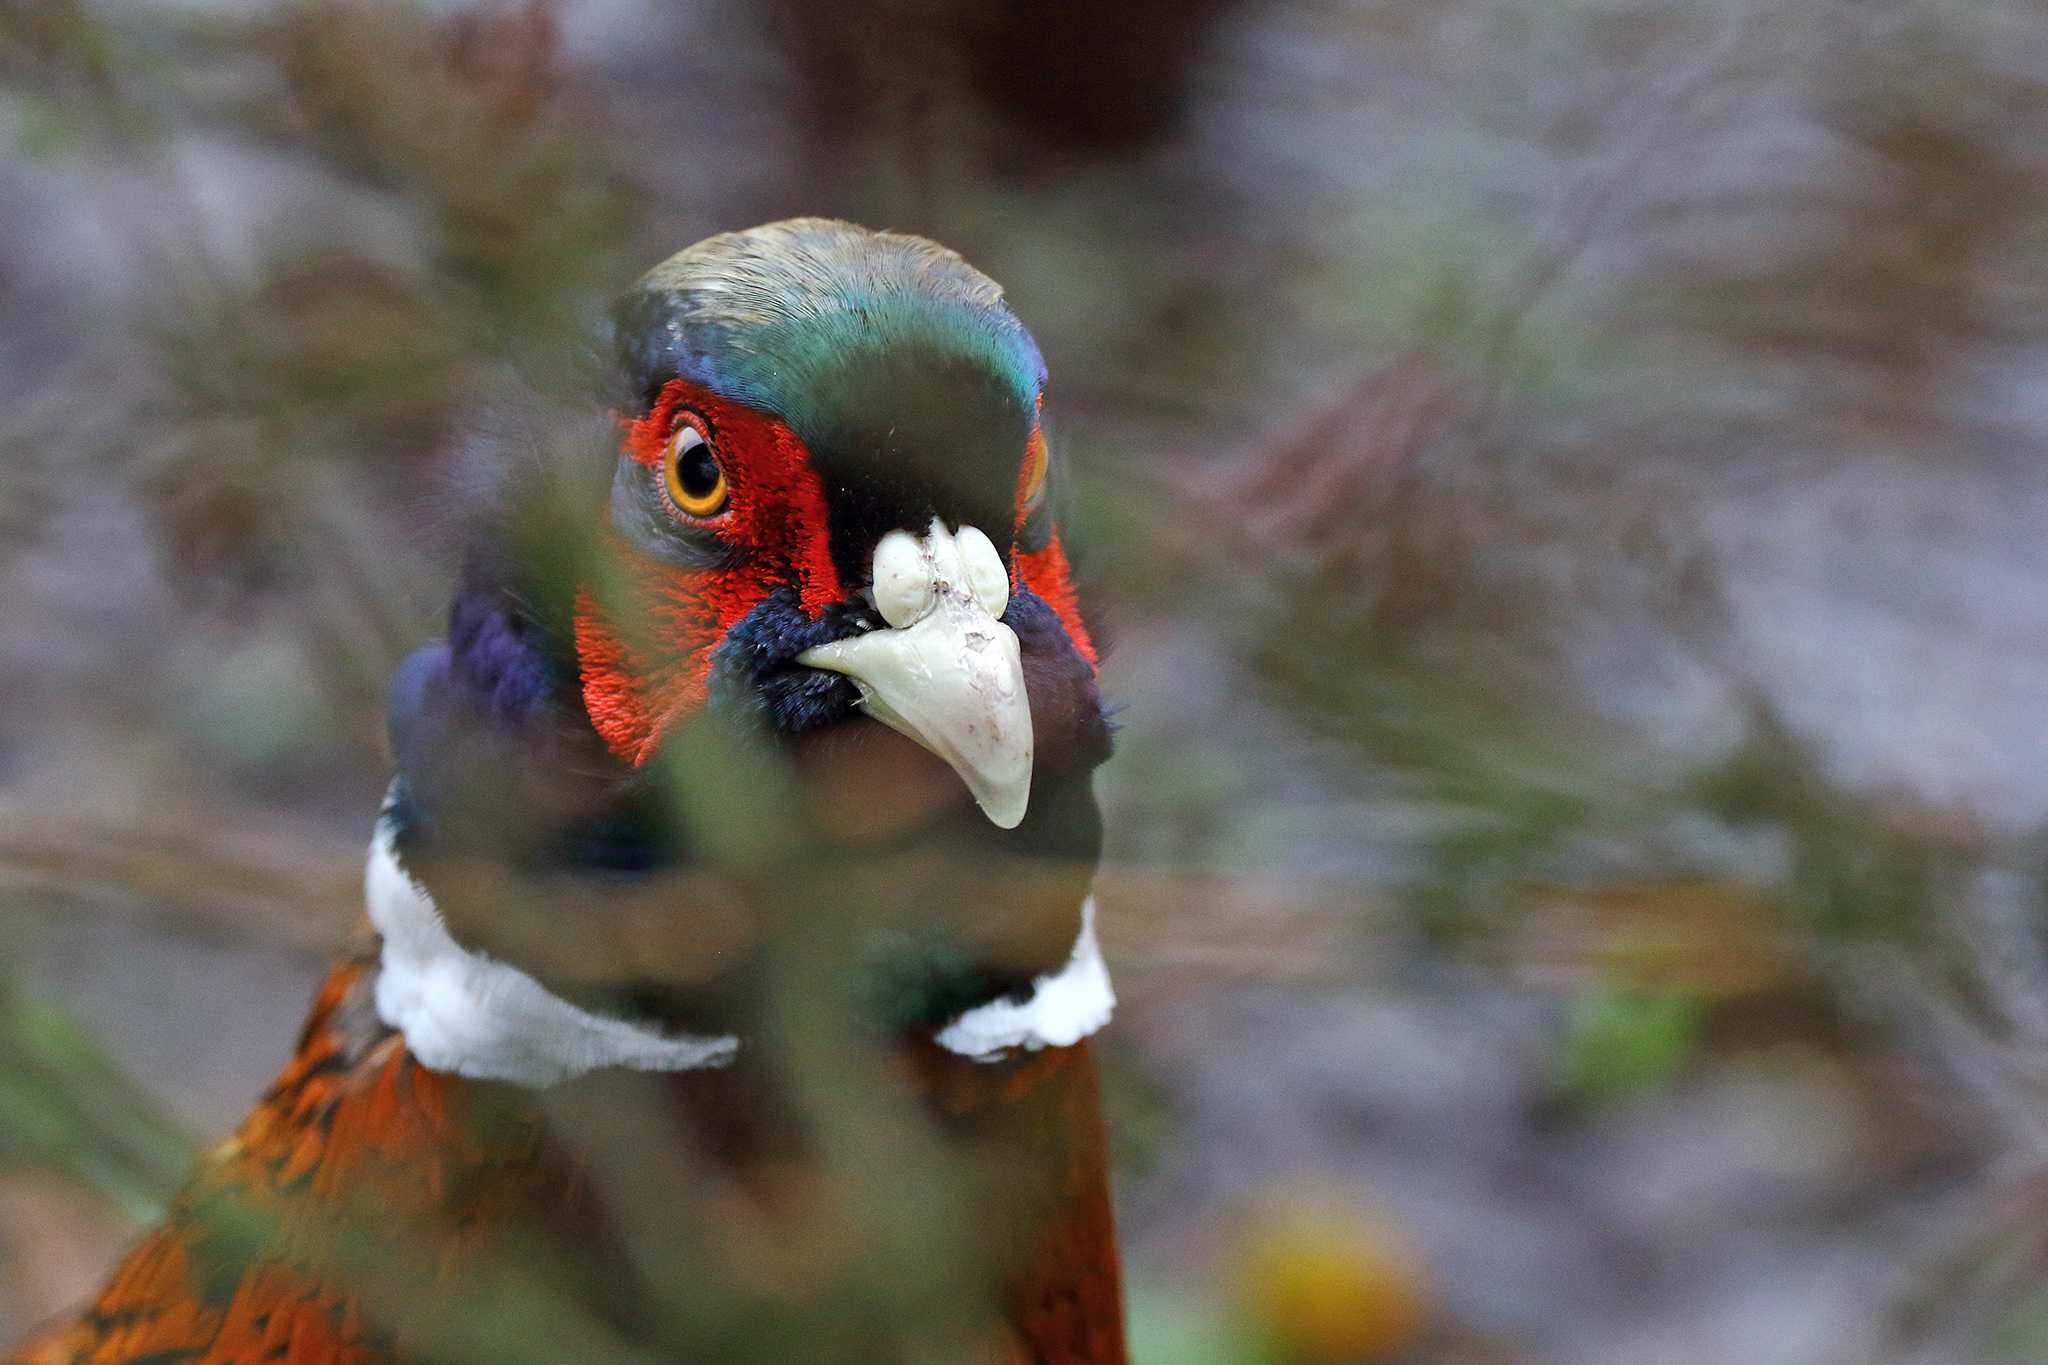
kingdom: Animalia
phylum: Chordata
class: Aves
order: Galliformes
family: Phasianidae
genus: Phasianus
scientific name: Phasianus colchicus
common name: Common pheasant
